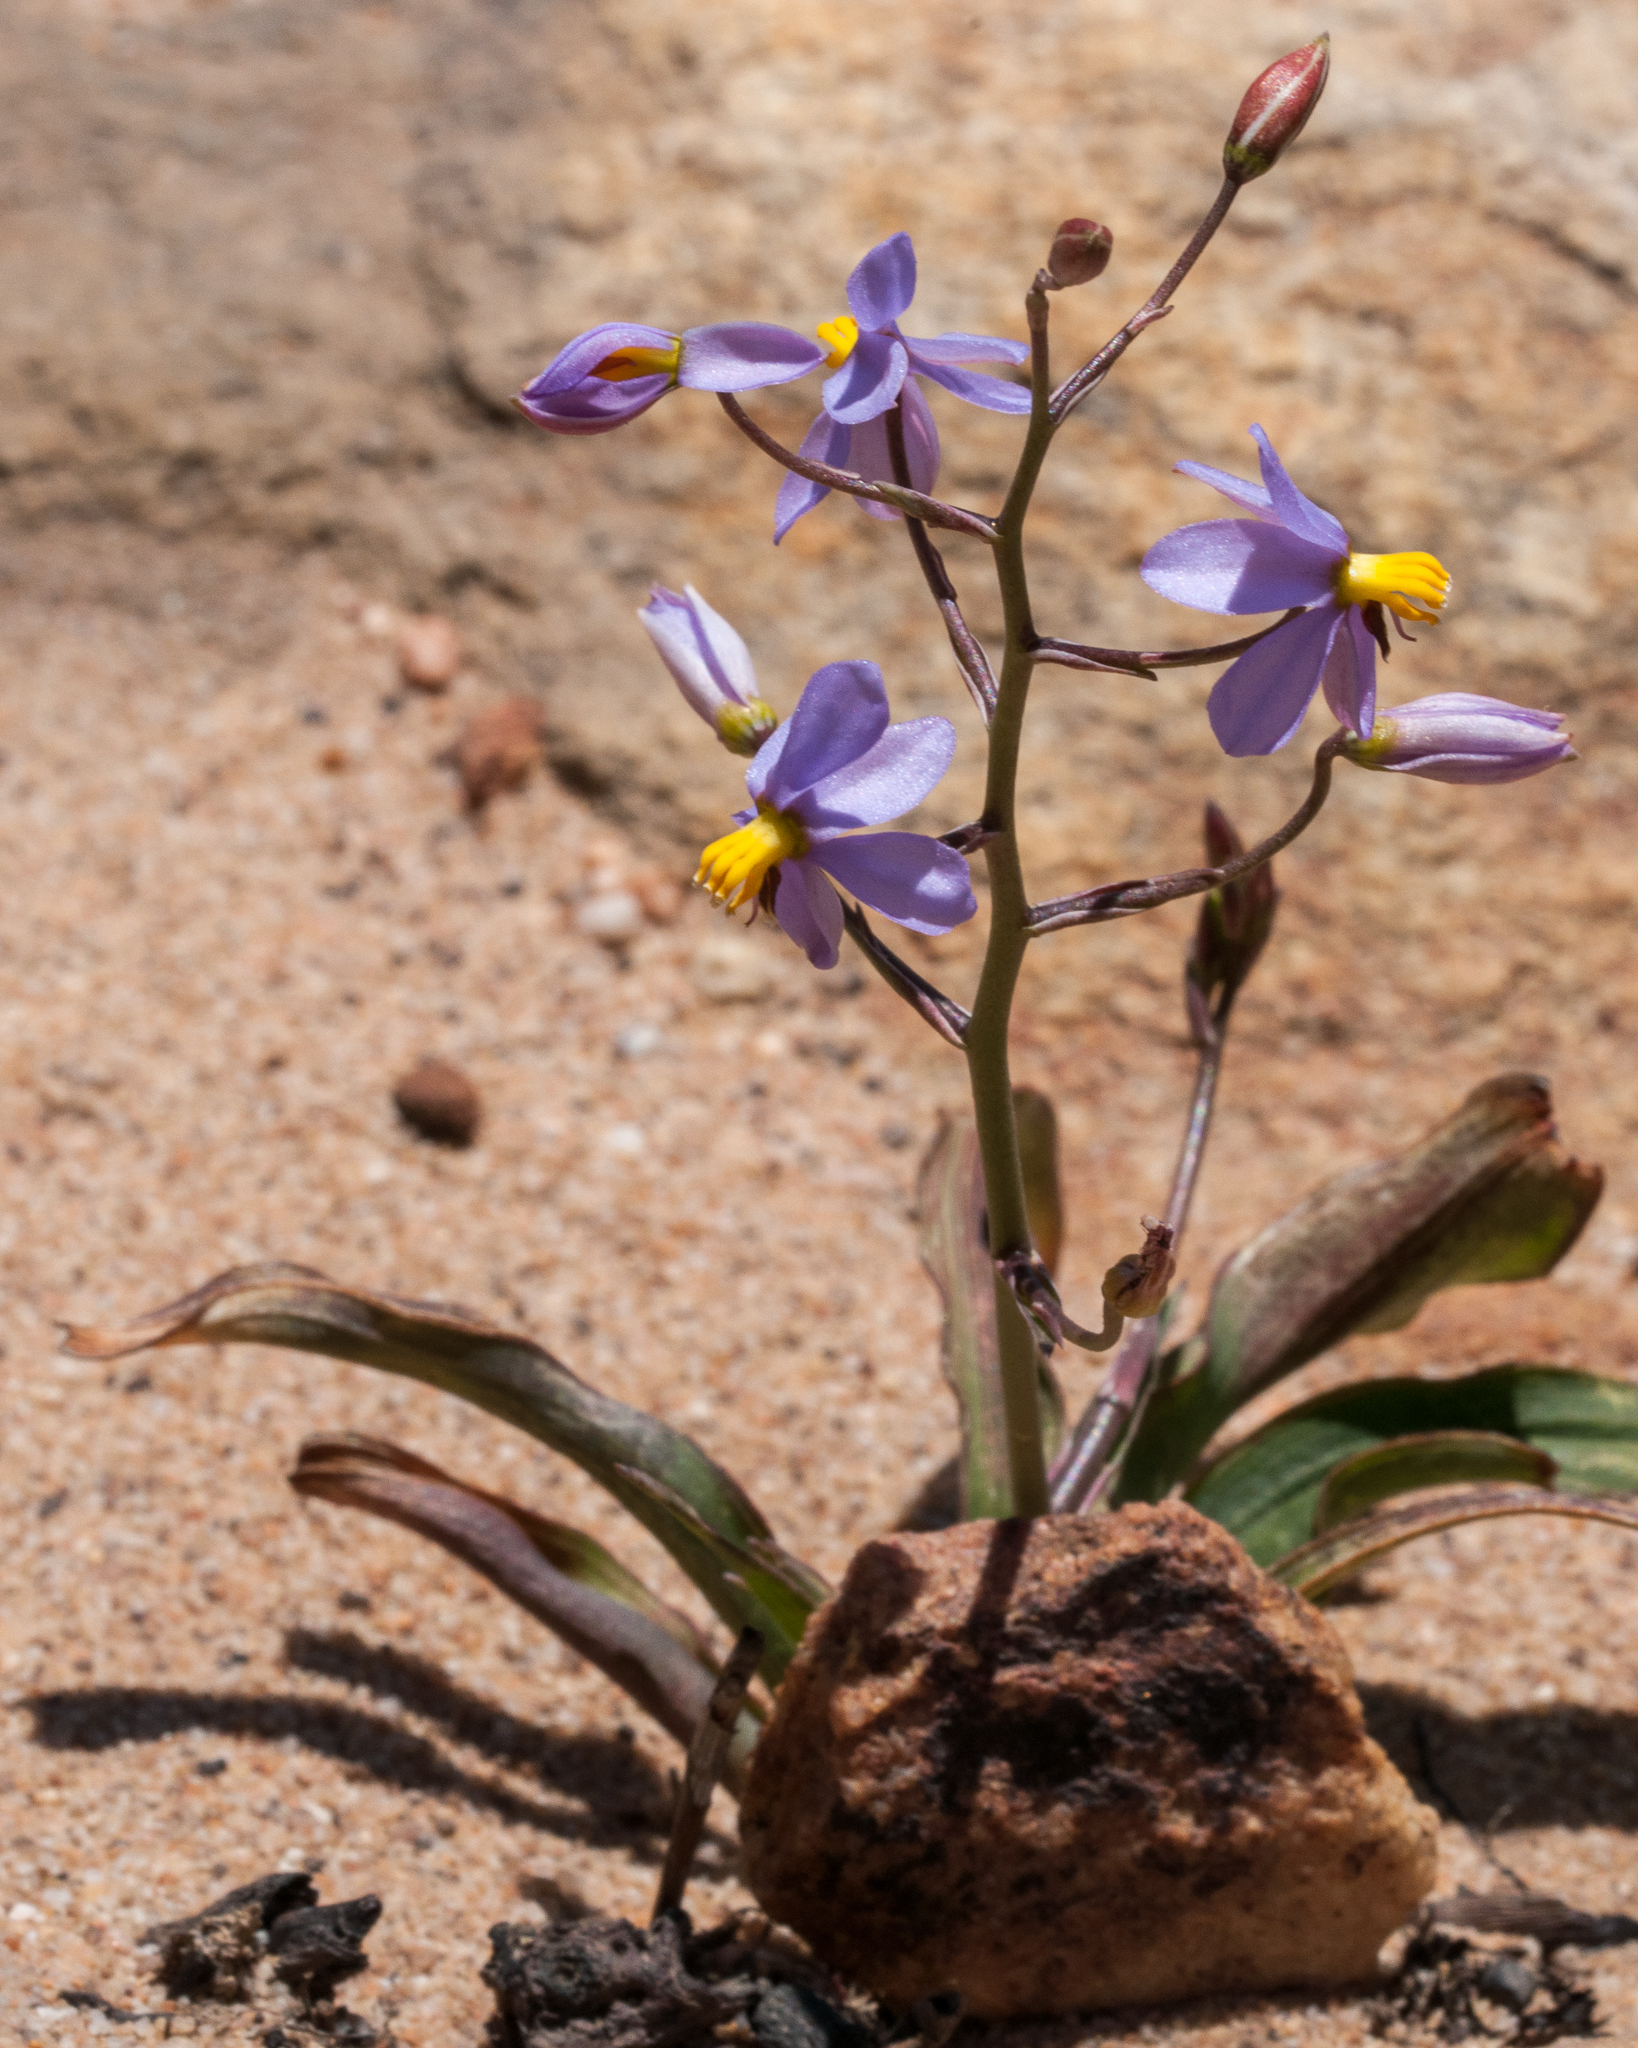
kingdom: Plantae
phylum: Tracheophyta
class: Liliopsida
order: Asparagales
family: Tecophilaeaceae
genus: Cyanella
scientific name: Cyanella hyacinthoides
